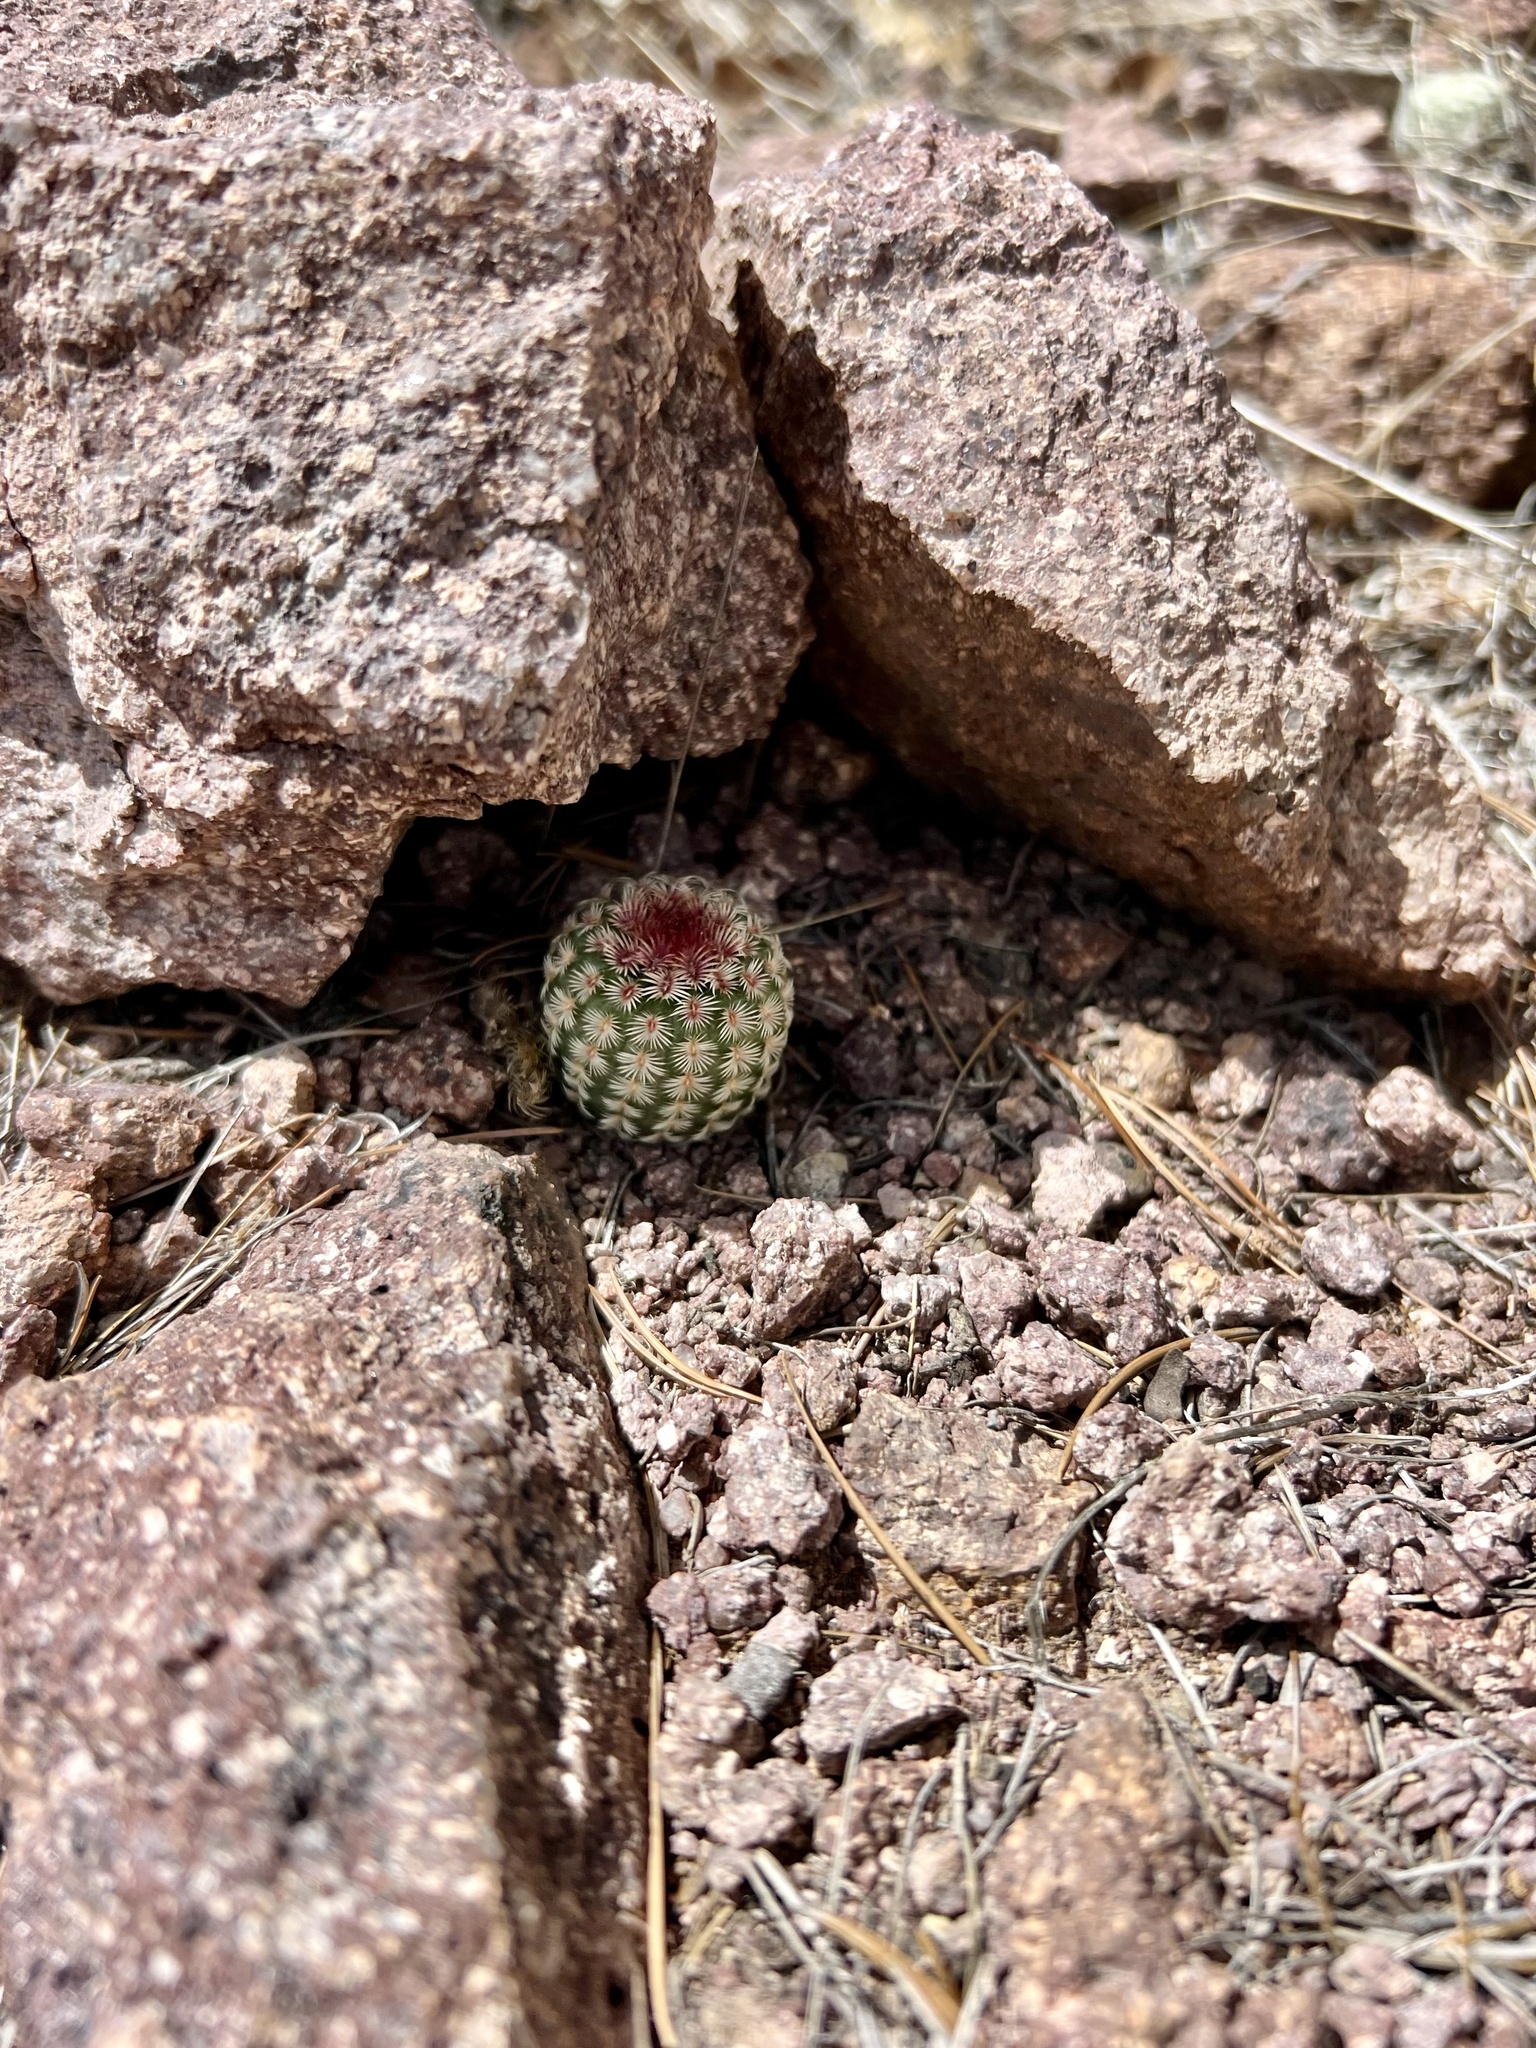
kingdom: Plantae
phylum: Tracheophyta
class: Magnoliopsida
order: Caryophyllales
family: Cactaceae
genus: Echinocereus
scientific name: Echinocereus rigidissimus
